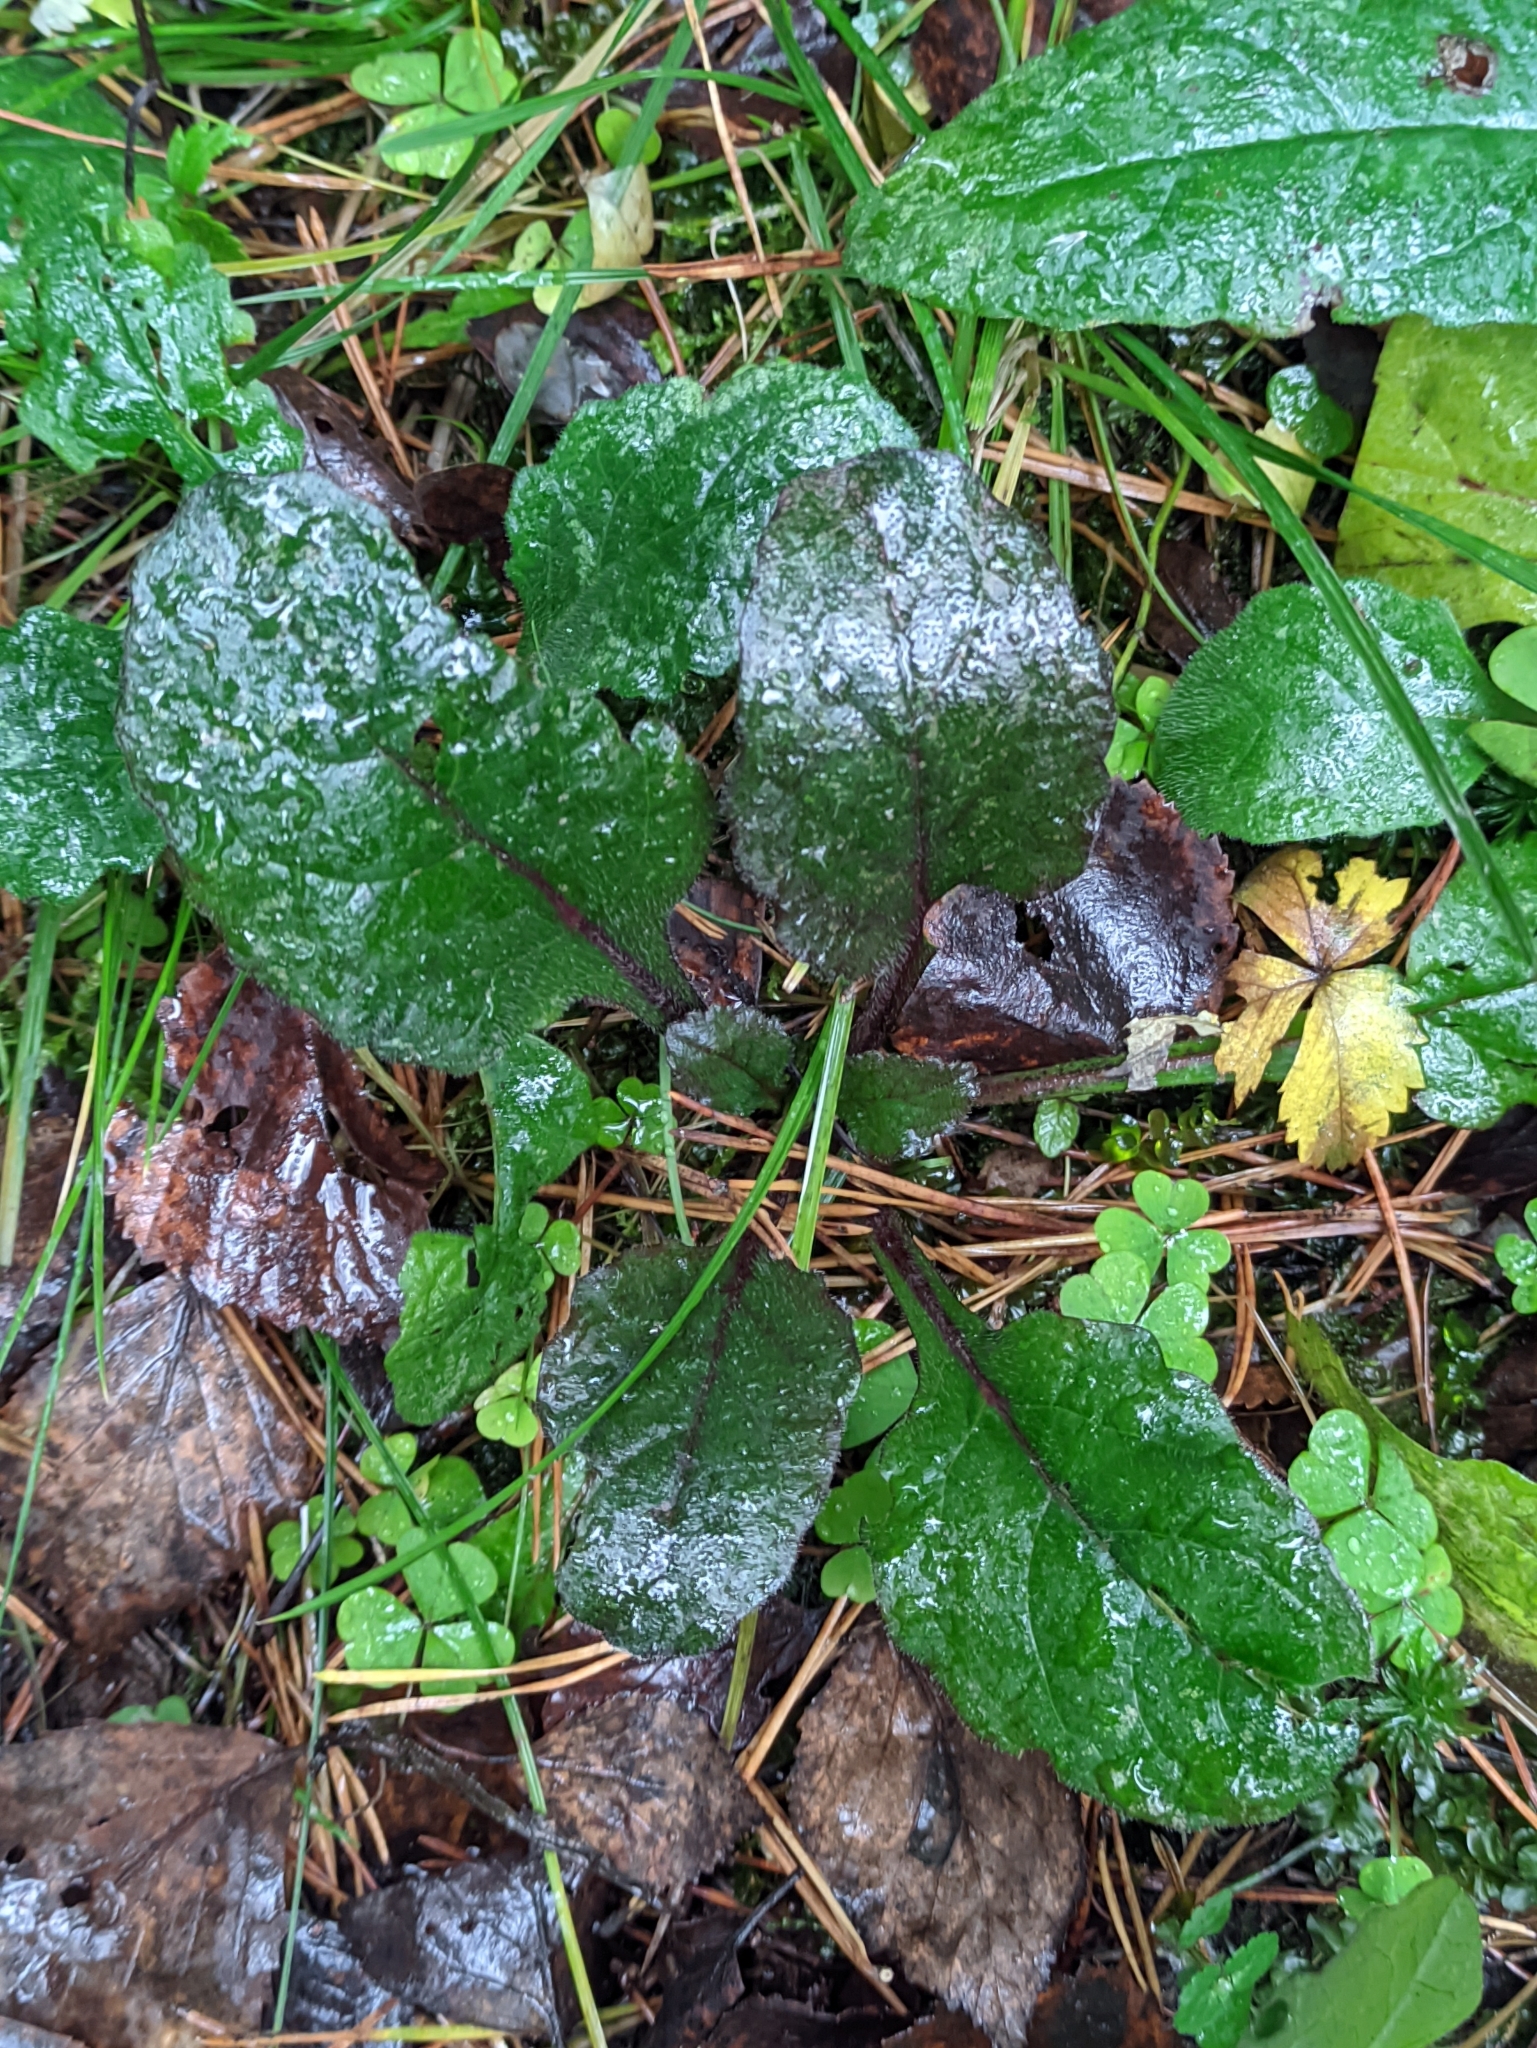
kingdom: Plantae
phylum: Tracheophyta
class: Magnoliopsida
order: Lamiales
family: Lamiaceae
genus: Ajuga
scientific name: Ajuga reptans
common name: Bugle
